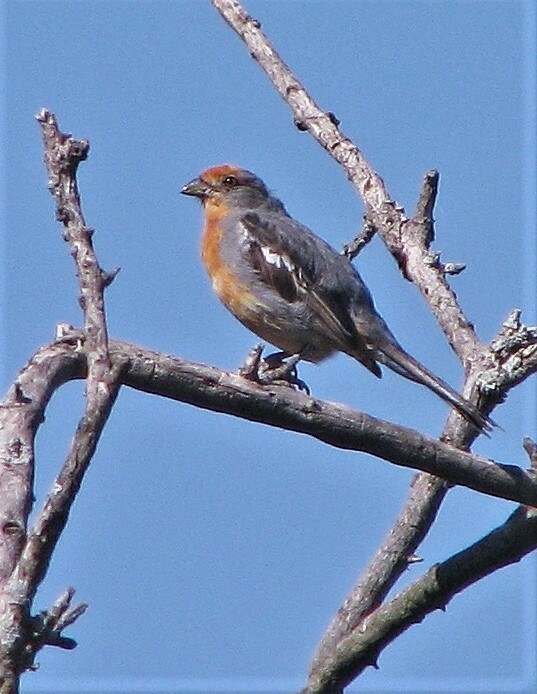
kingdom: Animalia
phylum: Chordata
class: Aves
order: Passeriformes
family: Cotingidae
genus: Phytotoma
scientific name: Phytotoma rutila
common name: White-tipped plantcutter
